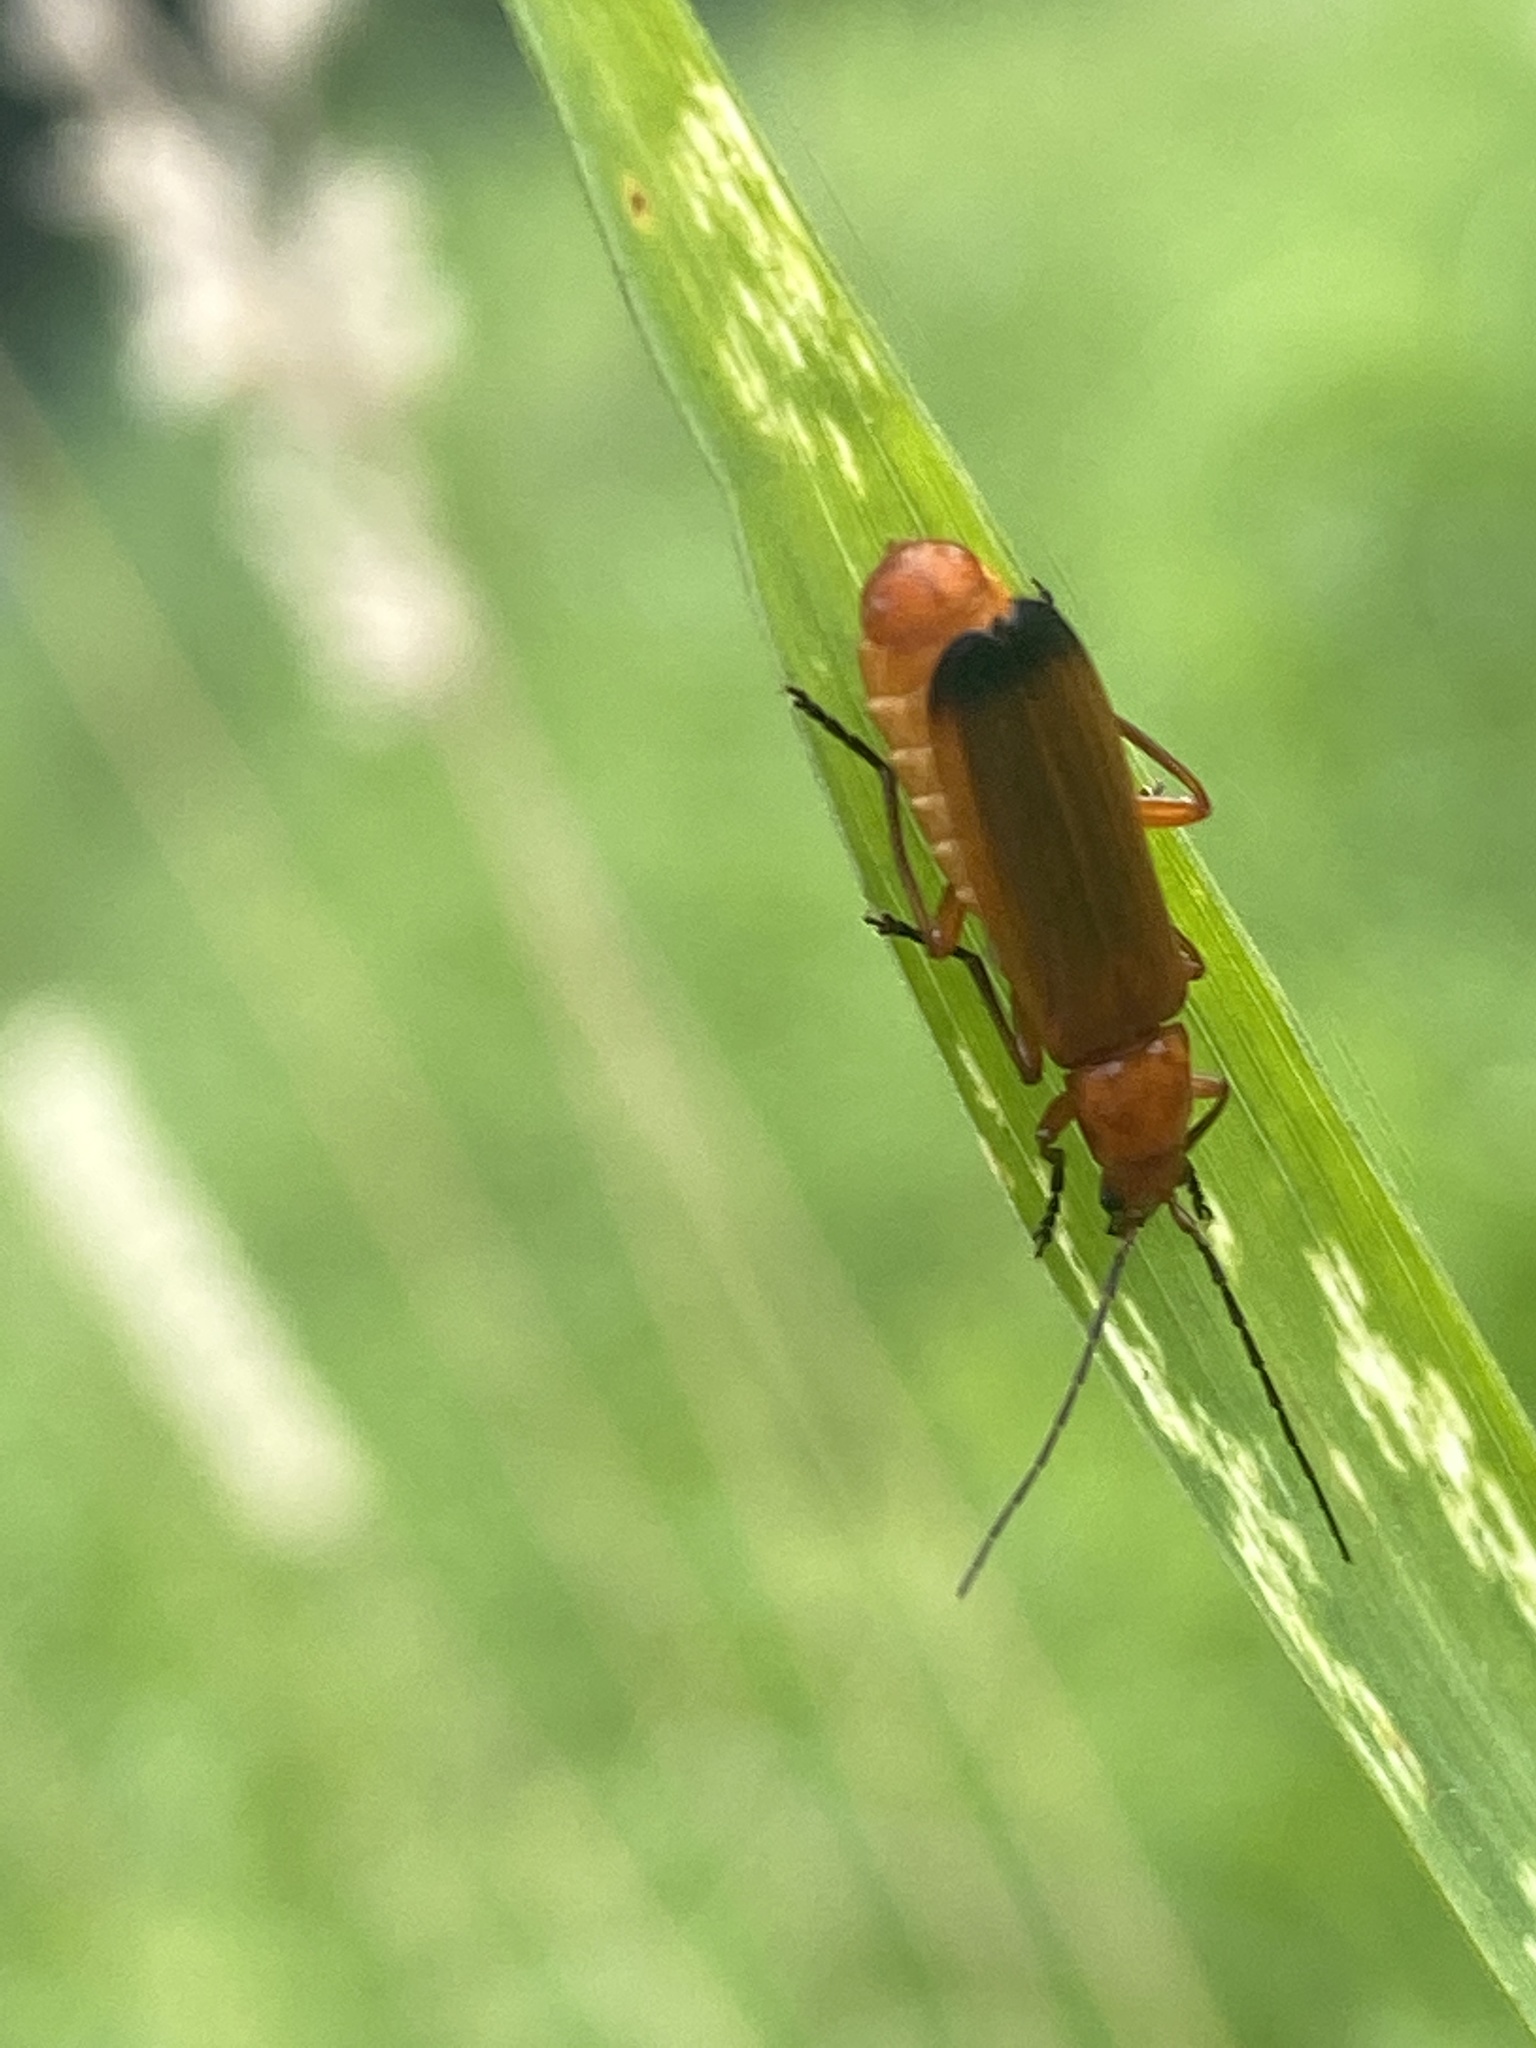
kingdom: Animalia
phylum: Arthropoda
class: Insecta
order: Coleoptera
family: Cantharidae
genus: Rhagonycha
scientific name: Rhagonycha fulva
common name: Common red soldier beetle
